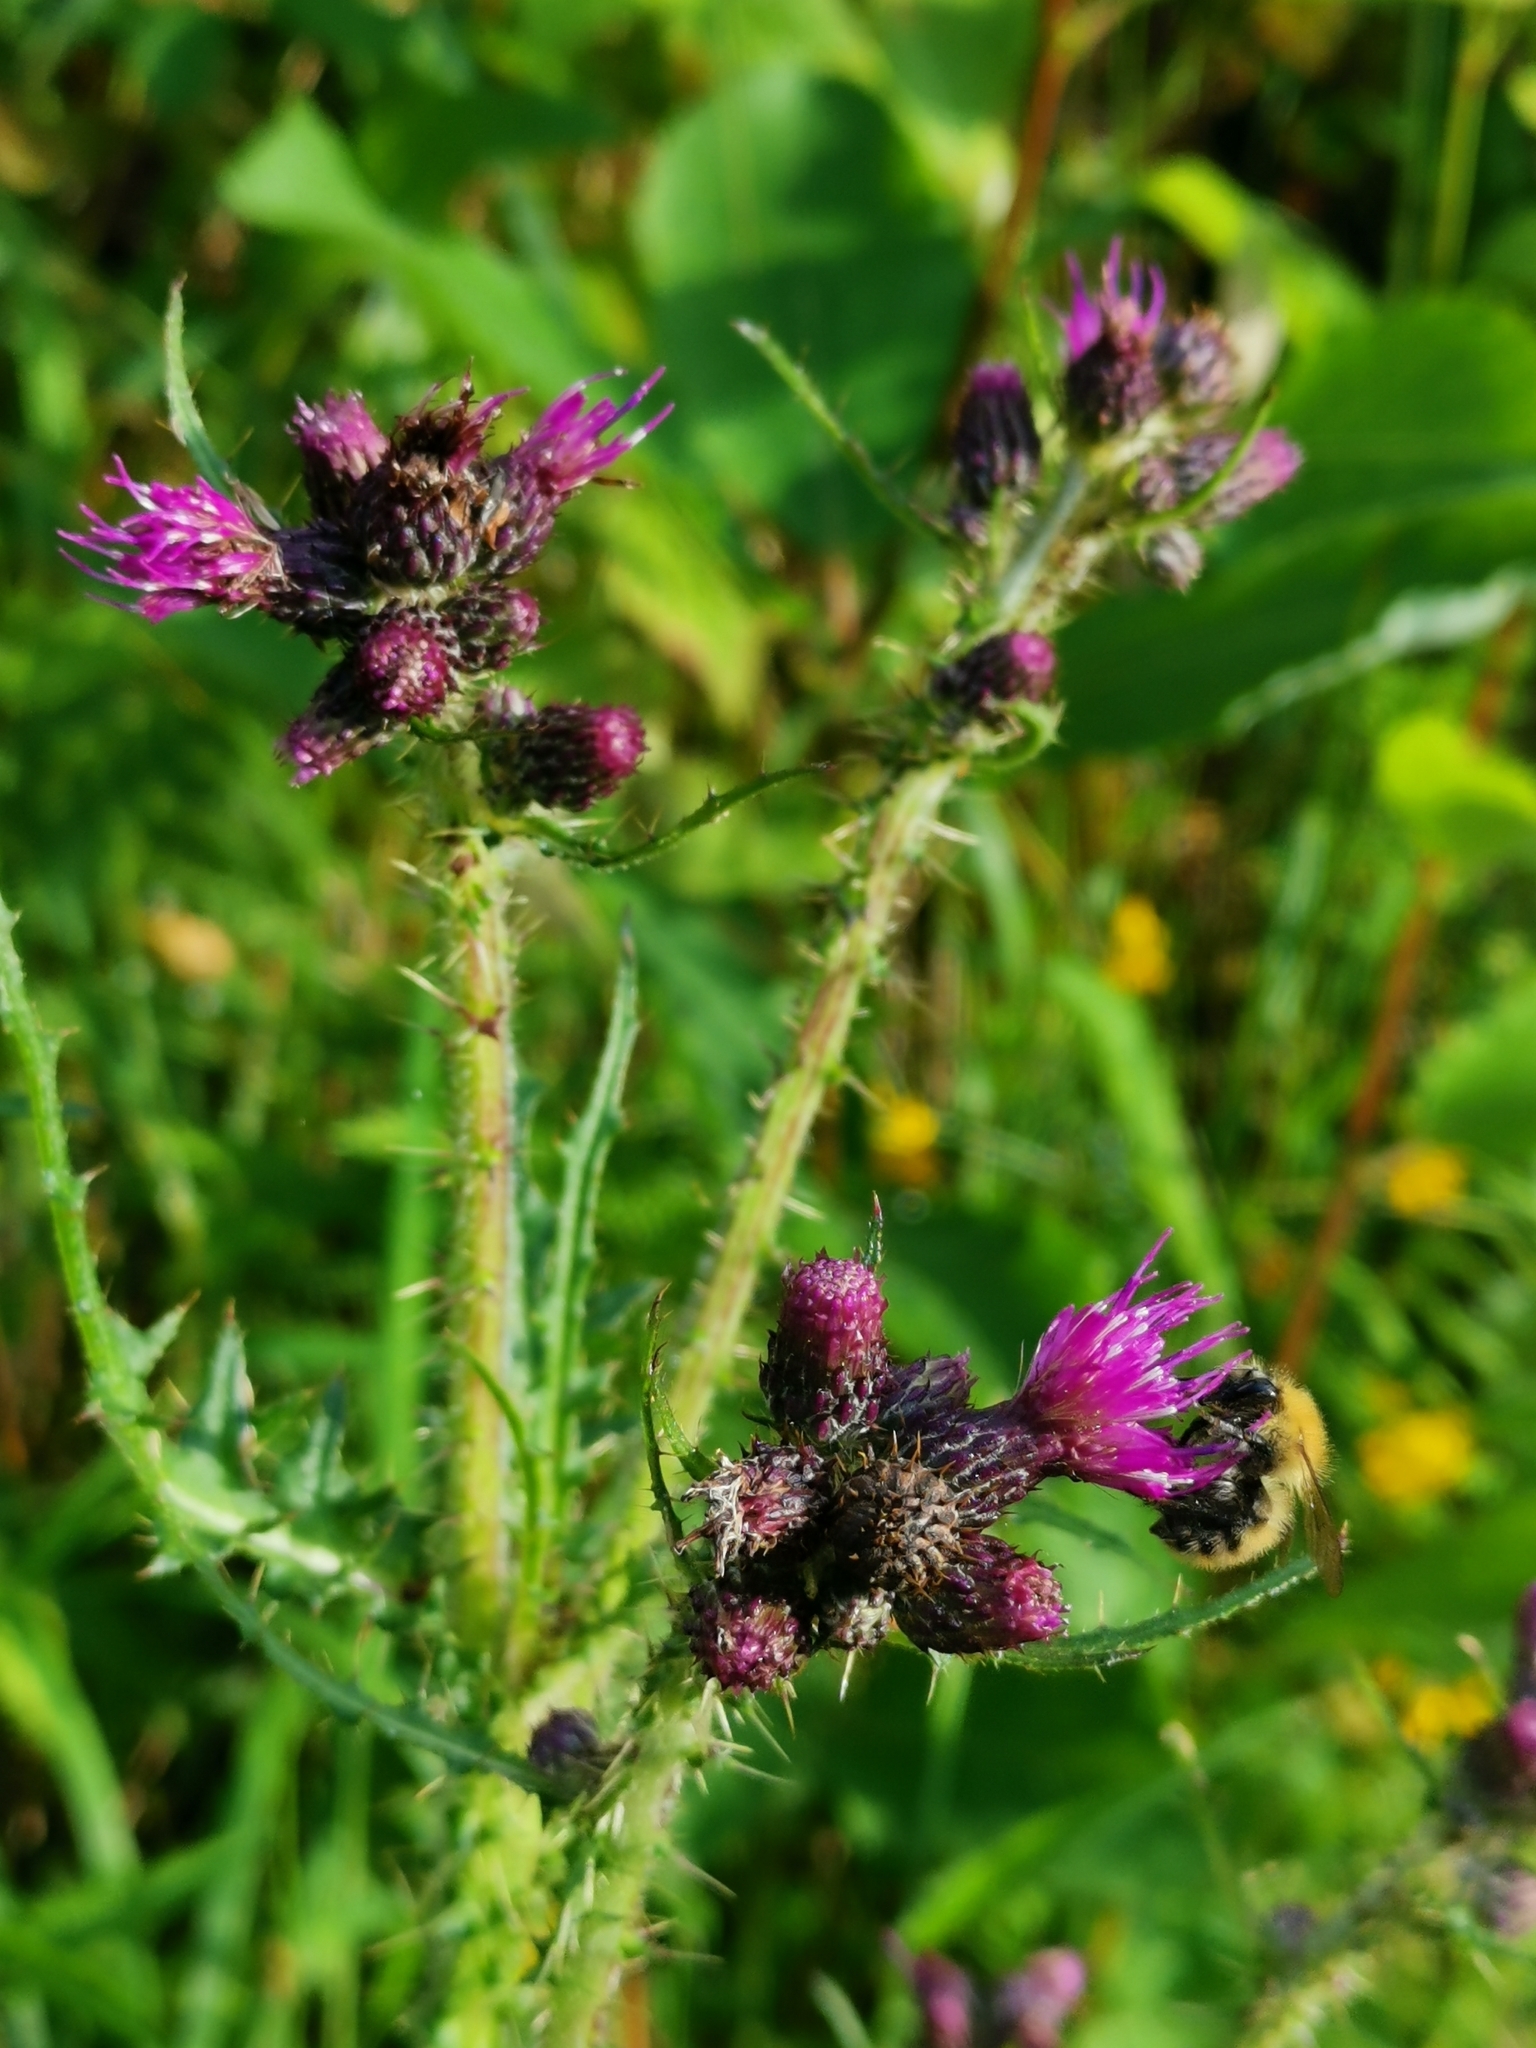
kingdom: Plantae
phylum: Tracheophyta
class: Magnoliopsida
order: Asterales
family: Asteraceae
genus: Cirsium
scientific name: Cirsium palustre
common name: Marsh thistle
